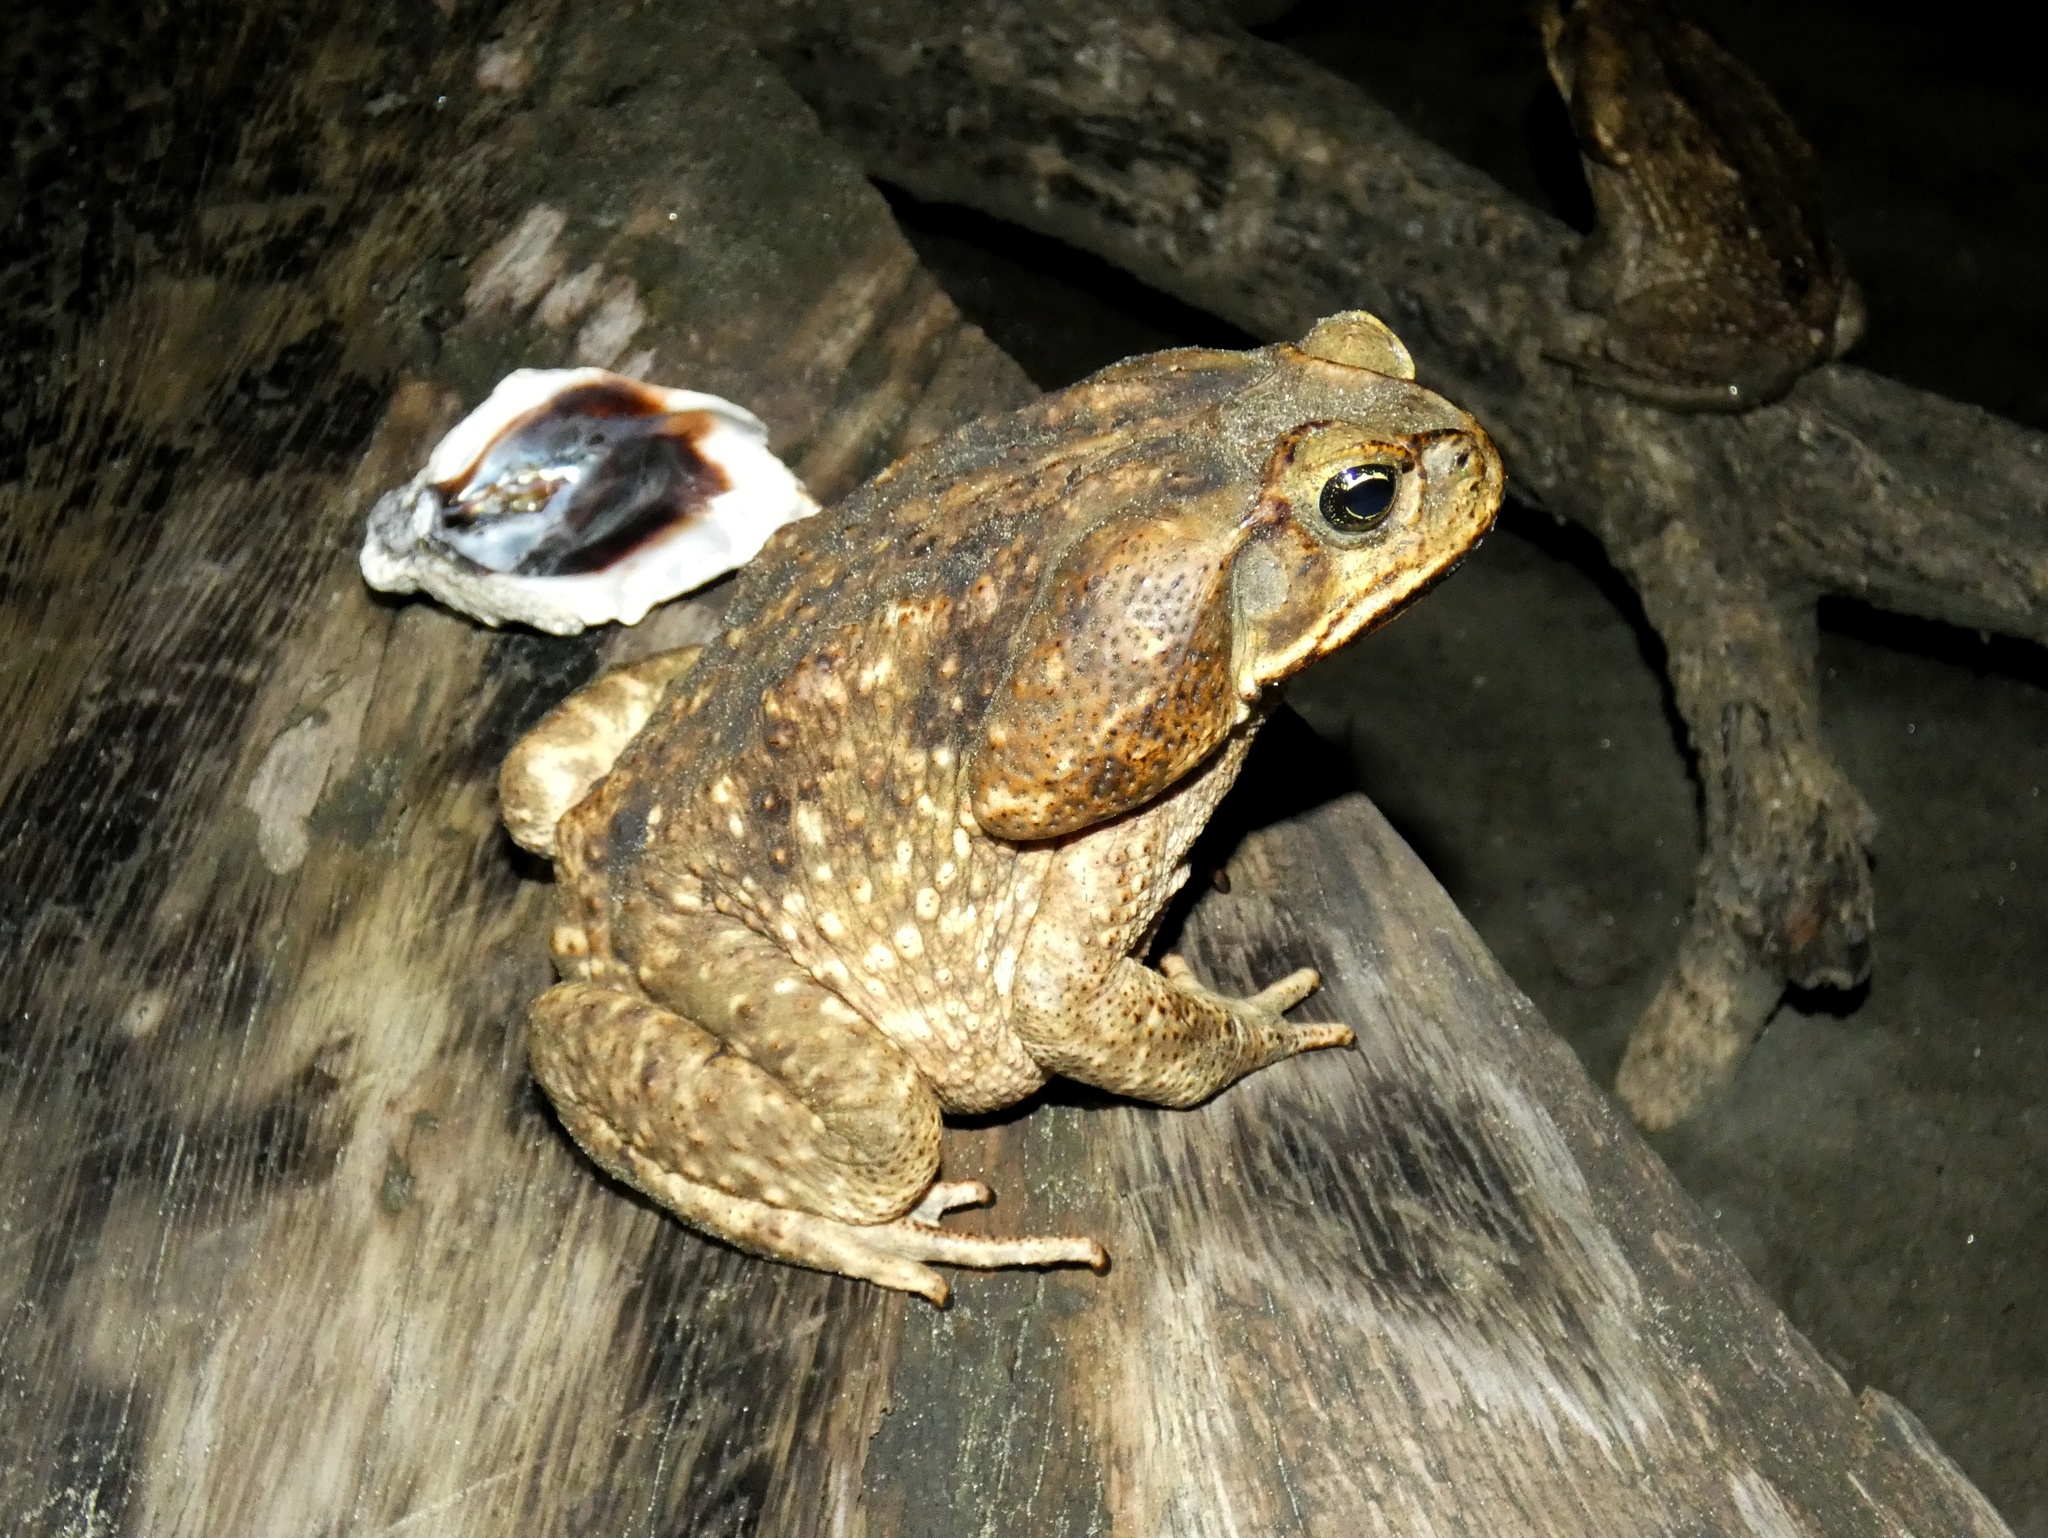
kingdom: Animalia
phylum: Chordata
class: Amphibia
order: Anura
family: Bufonidae
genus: Rhinella
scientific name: Rhinella horribilis
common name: Mesoamerican cane toad
